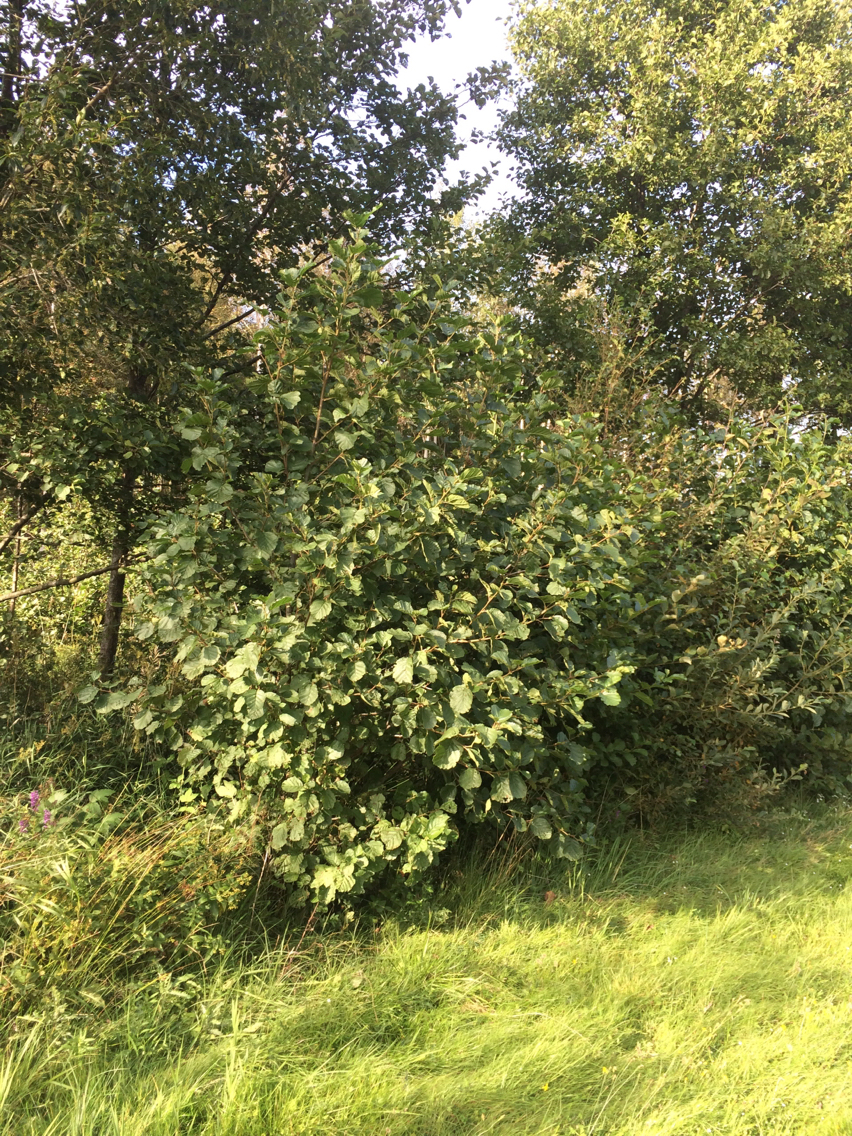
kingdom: Plantae
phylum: Tracheophyta
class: Magnoliopsida
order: Fagales
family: Betulaceae
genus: Alnus
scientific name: Alnus glutinosa
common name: Black alder
